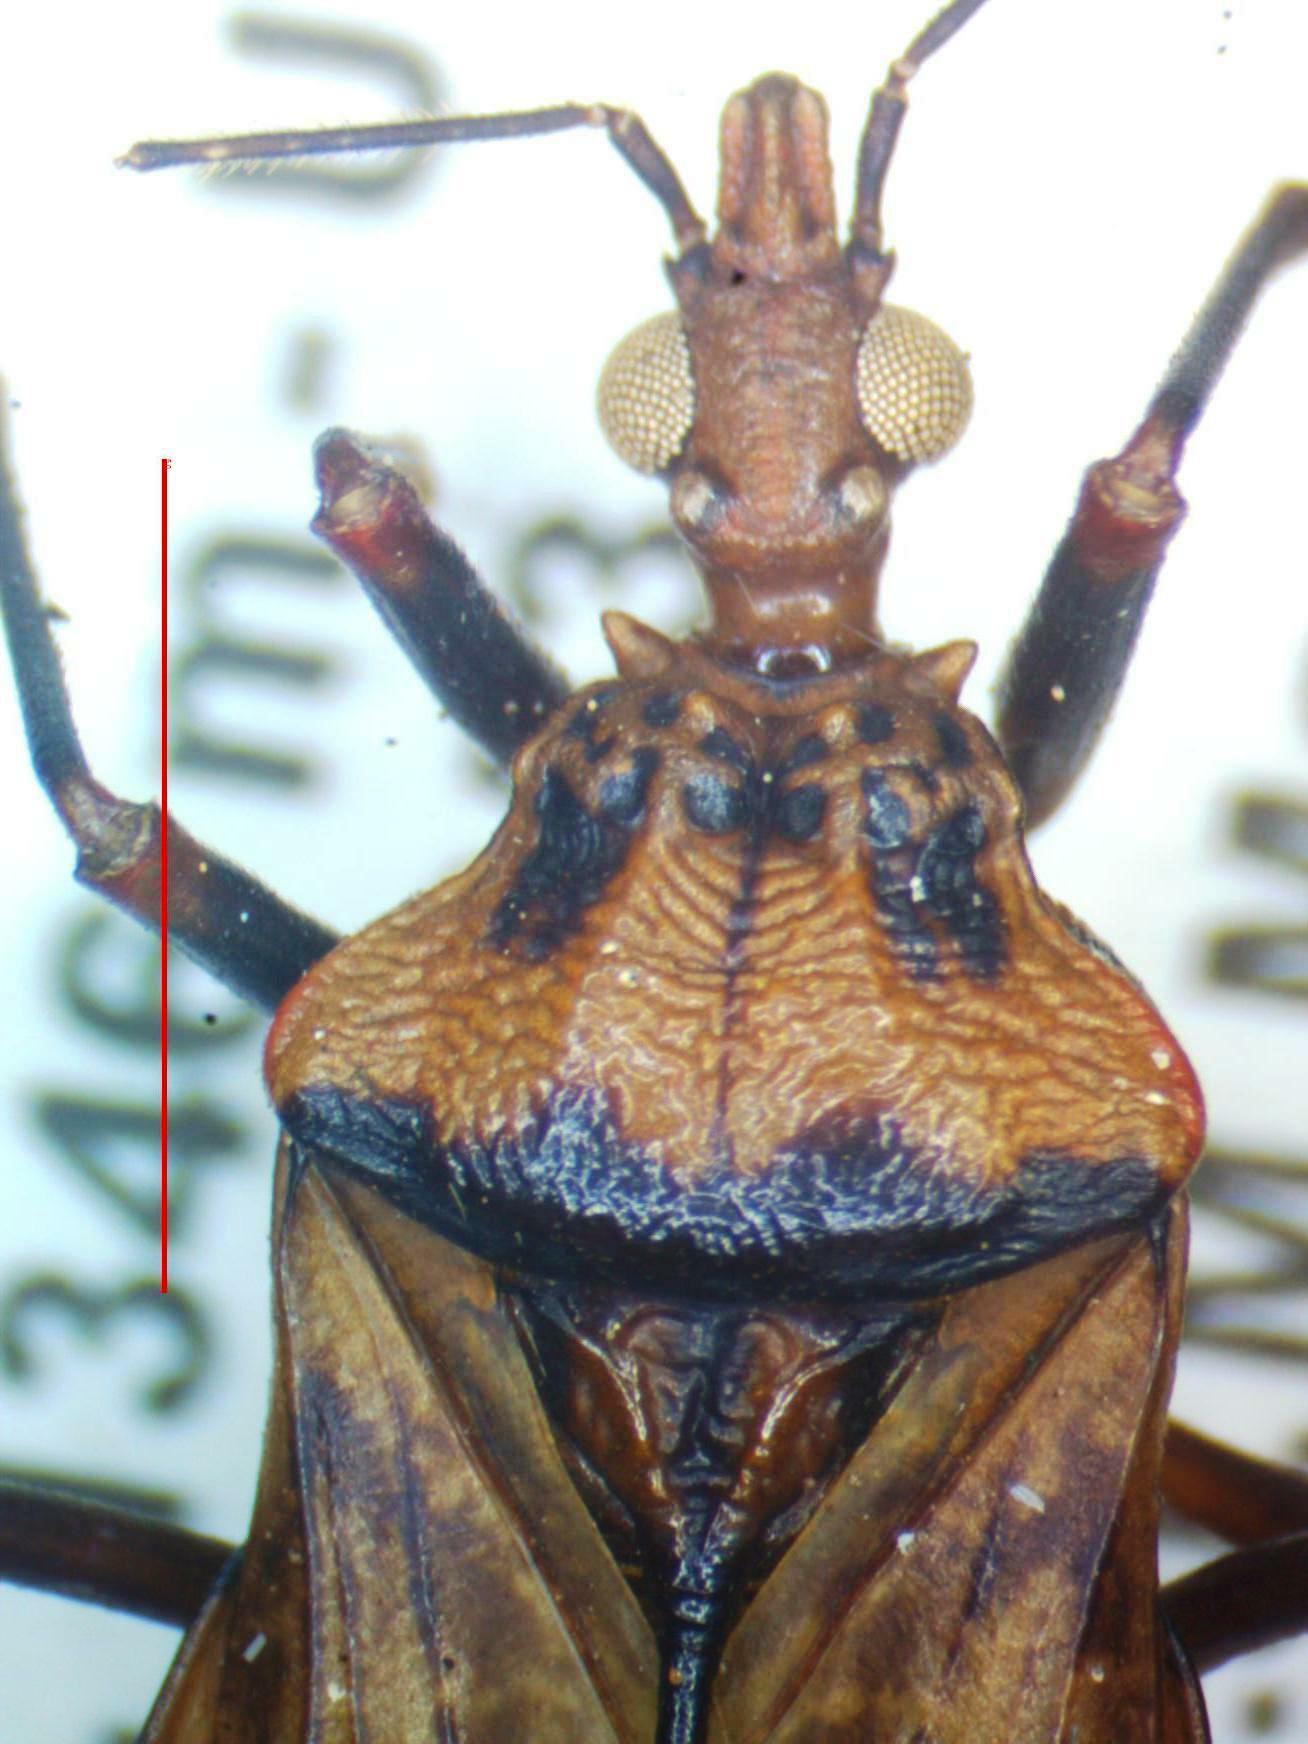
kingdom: Animalia
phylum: Arthropoda
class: Insecta
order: Hemiptera
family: Reduviidae
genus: Panstrongylus
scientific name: Panstrongylus geniculatus
